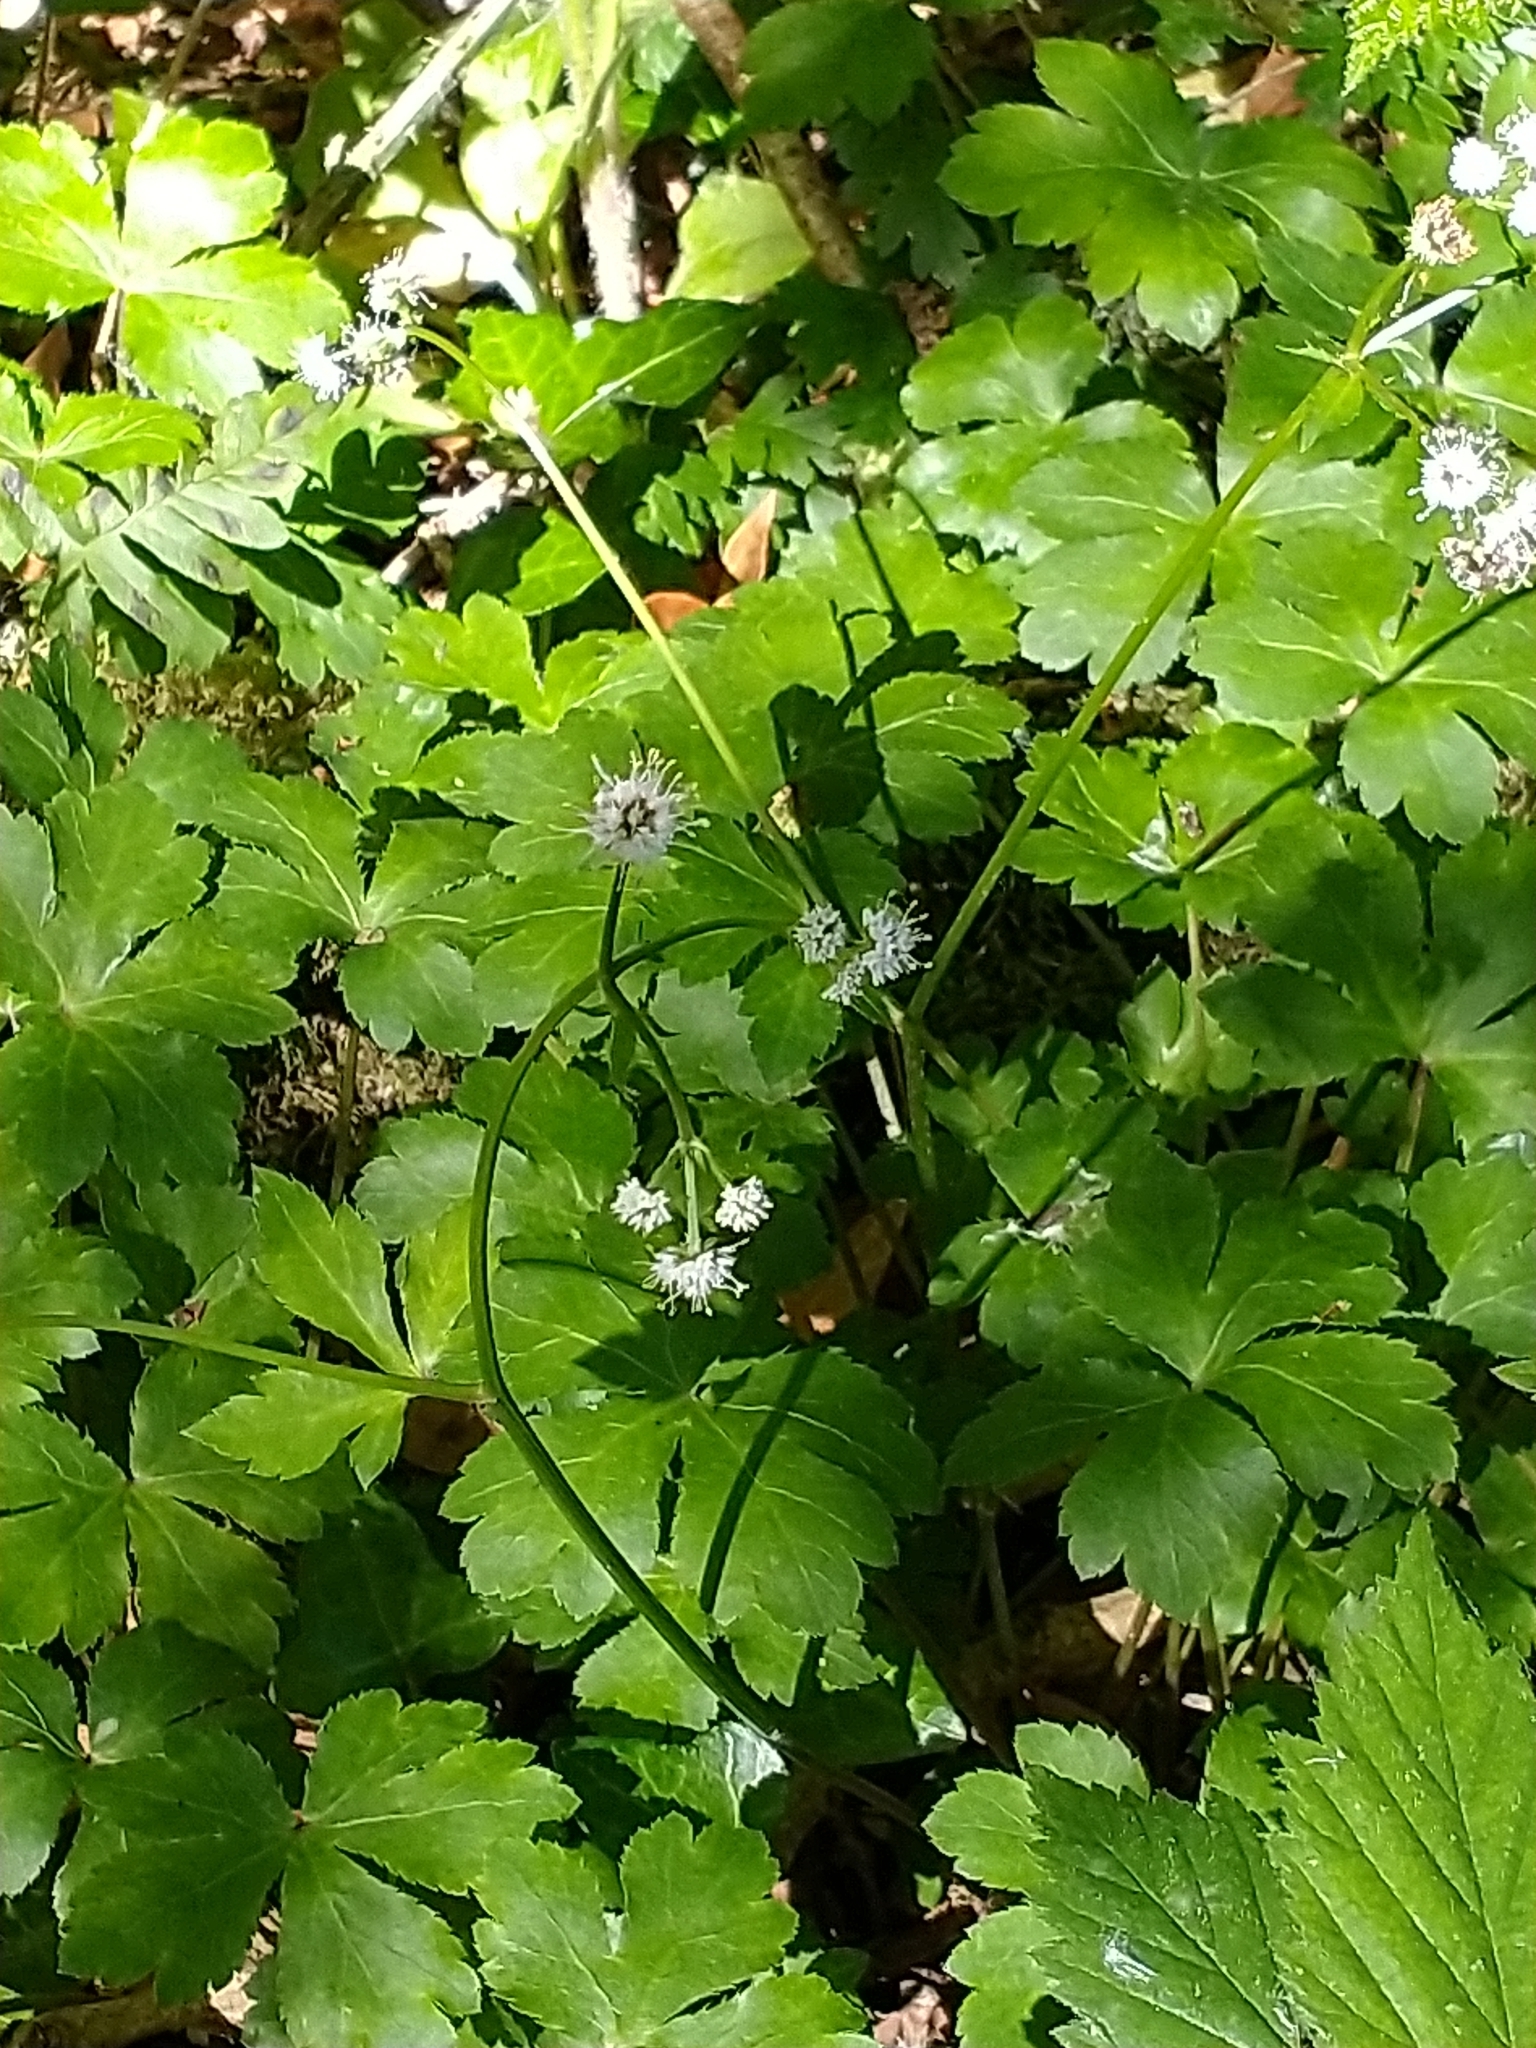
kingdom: Plantae
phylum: Tracheophyta
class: Magnoliopsida
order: Apiales
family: Apiaceae
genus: Sanicula
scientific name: Sanicula europaea
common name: Sanicle
